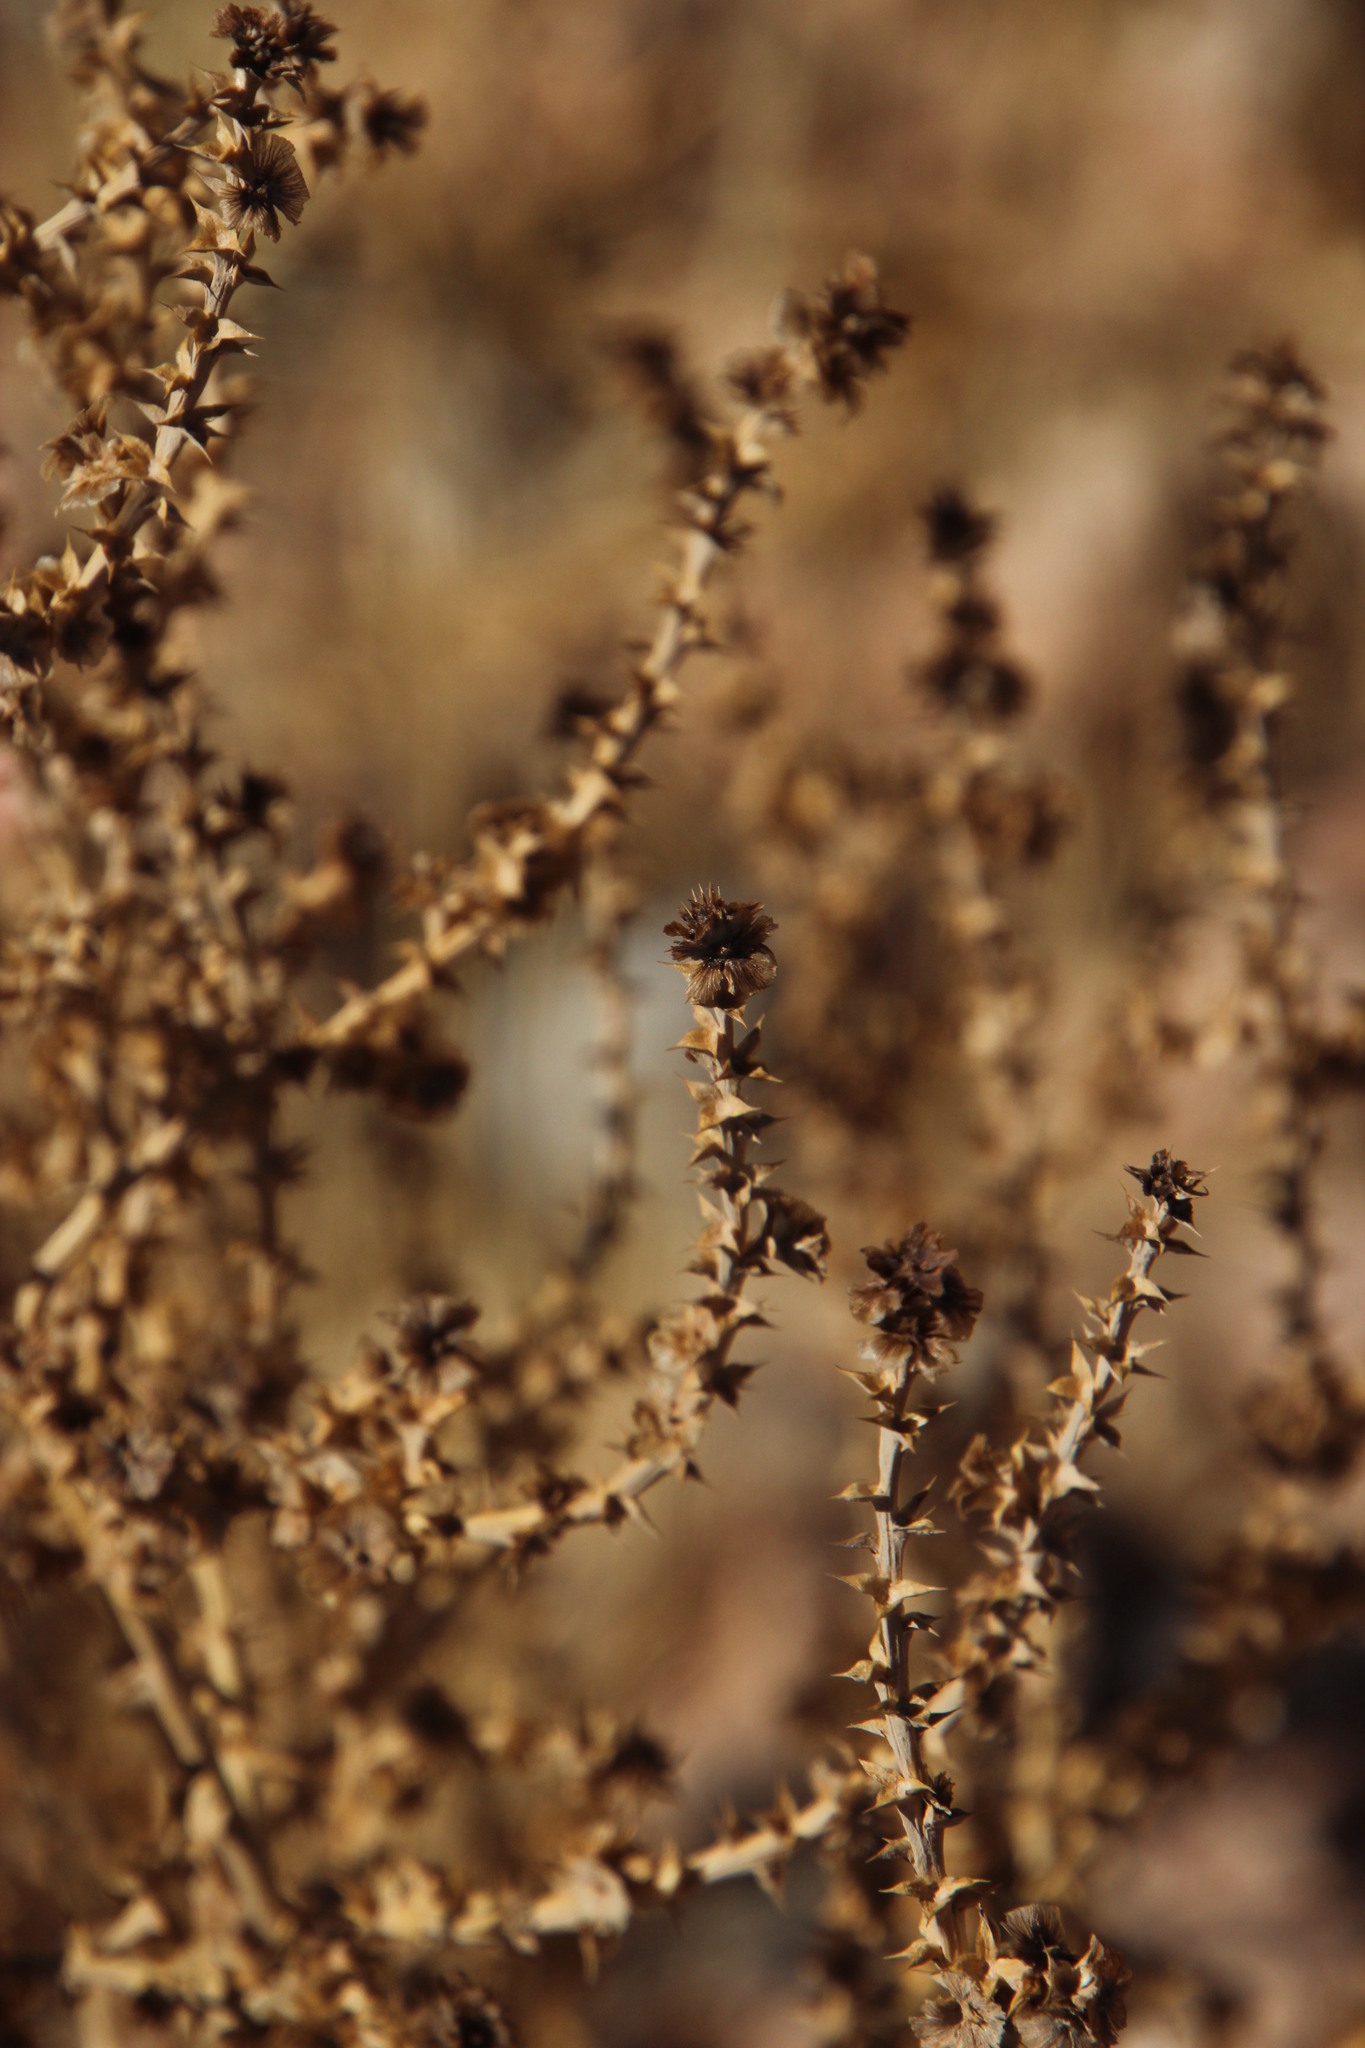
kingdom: Plantae
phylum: Tracheophyta
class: Magnoliopsida
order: Caryophyllales
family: Amaranthaceae
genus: Salsola
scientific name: Salsola kali
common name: Saltwort
